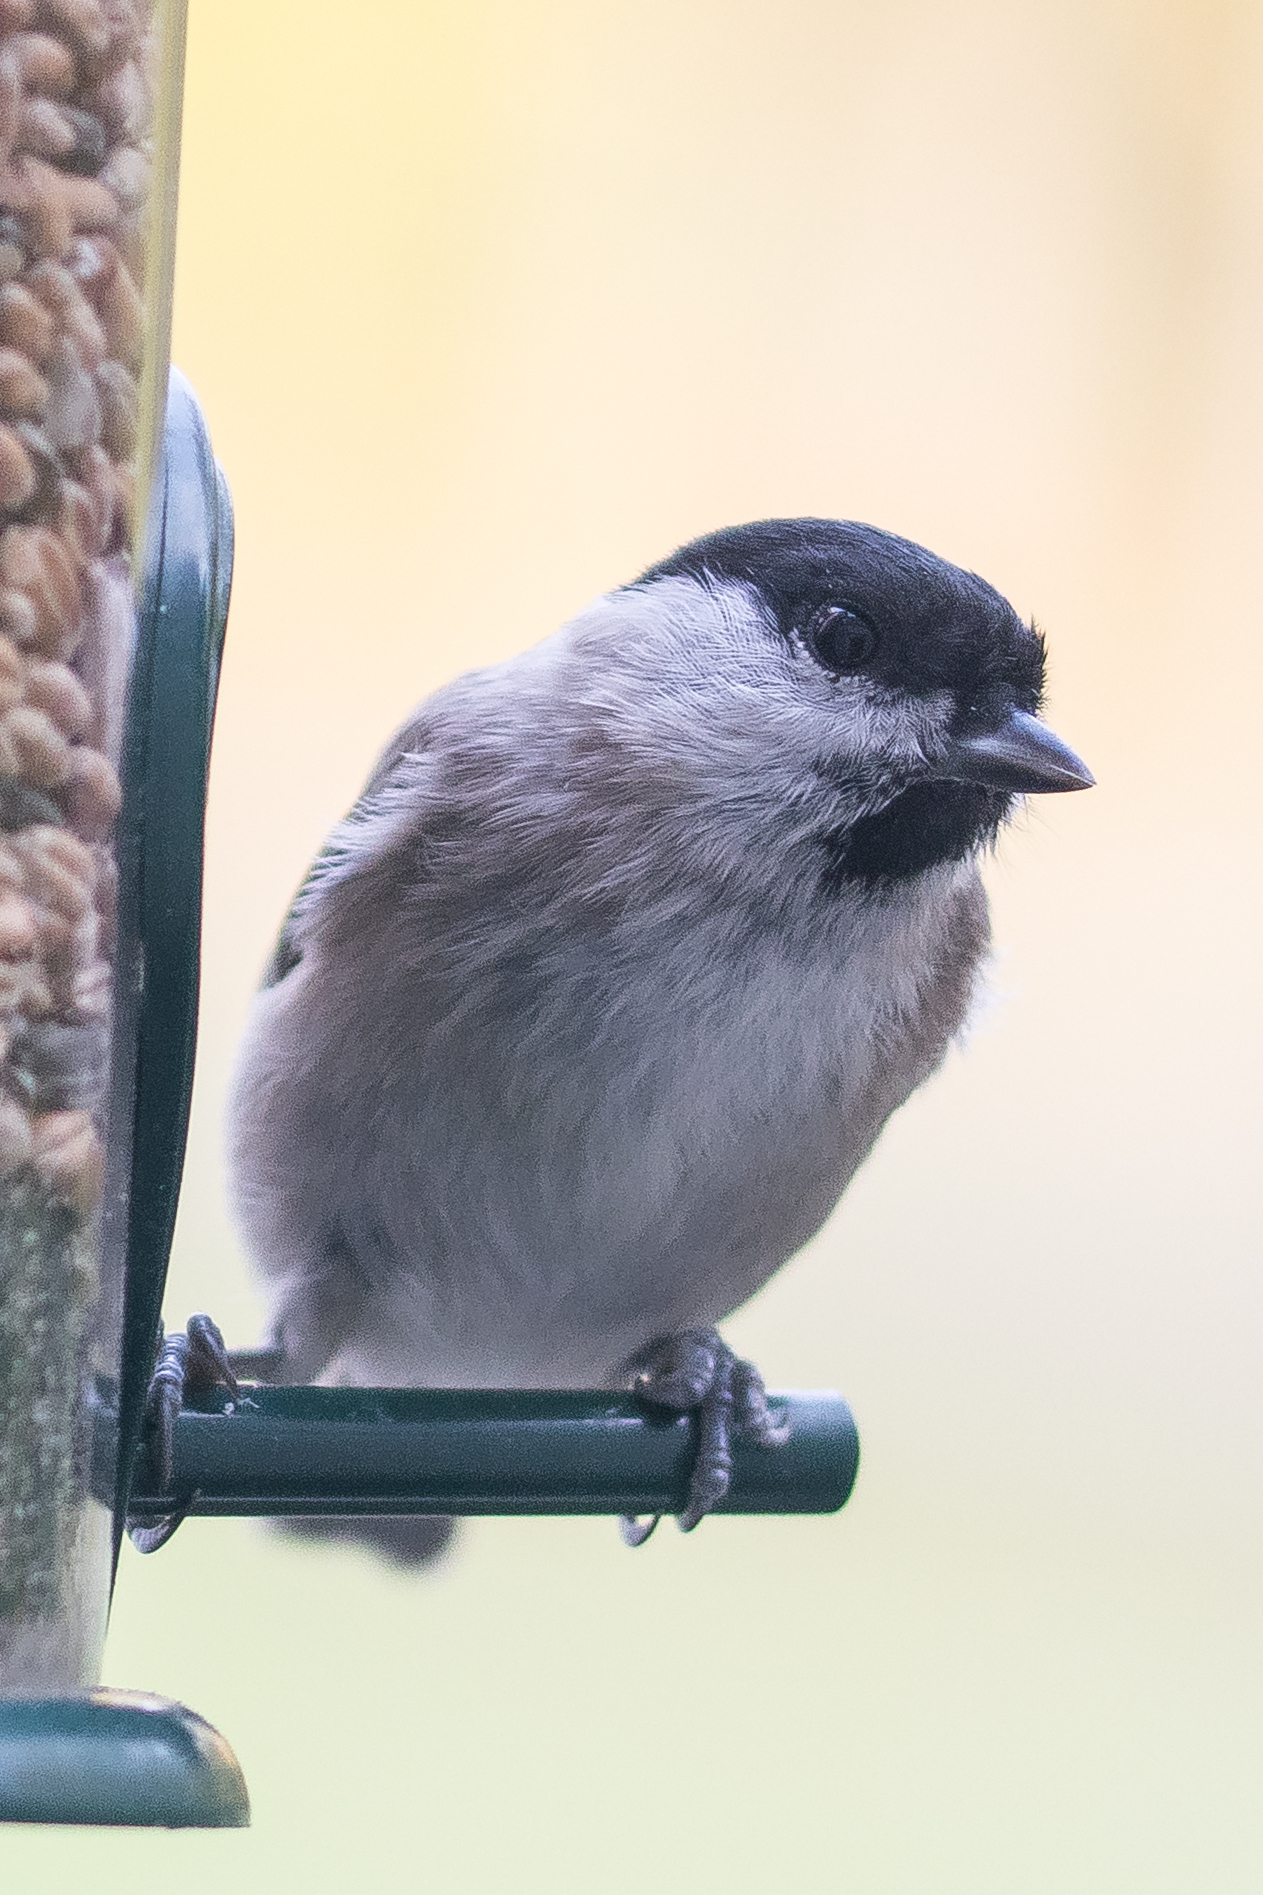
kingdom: Animalia
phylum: Chordata
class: Aves
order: Passeriformes
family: Paridae
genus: Poecile
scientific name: Poecile palustris
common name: Marsh tit
